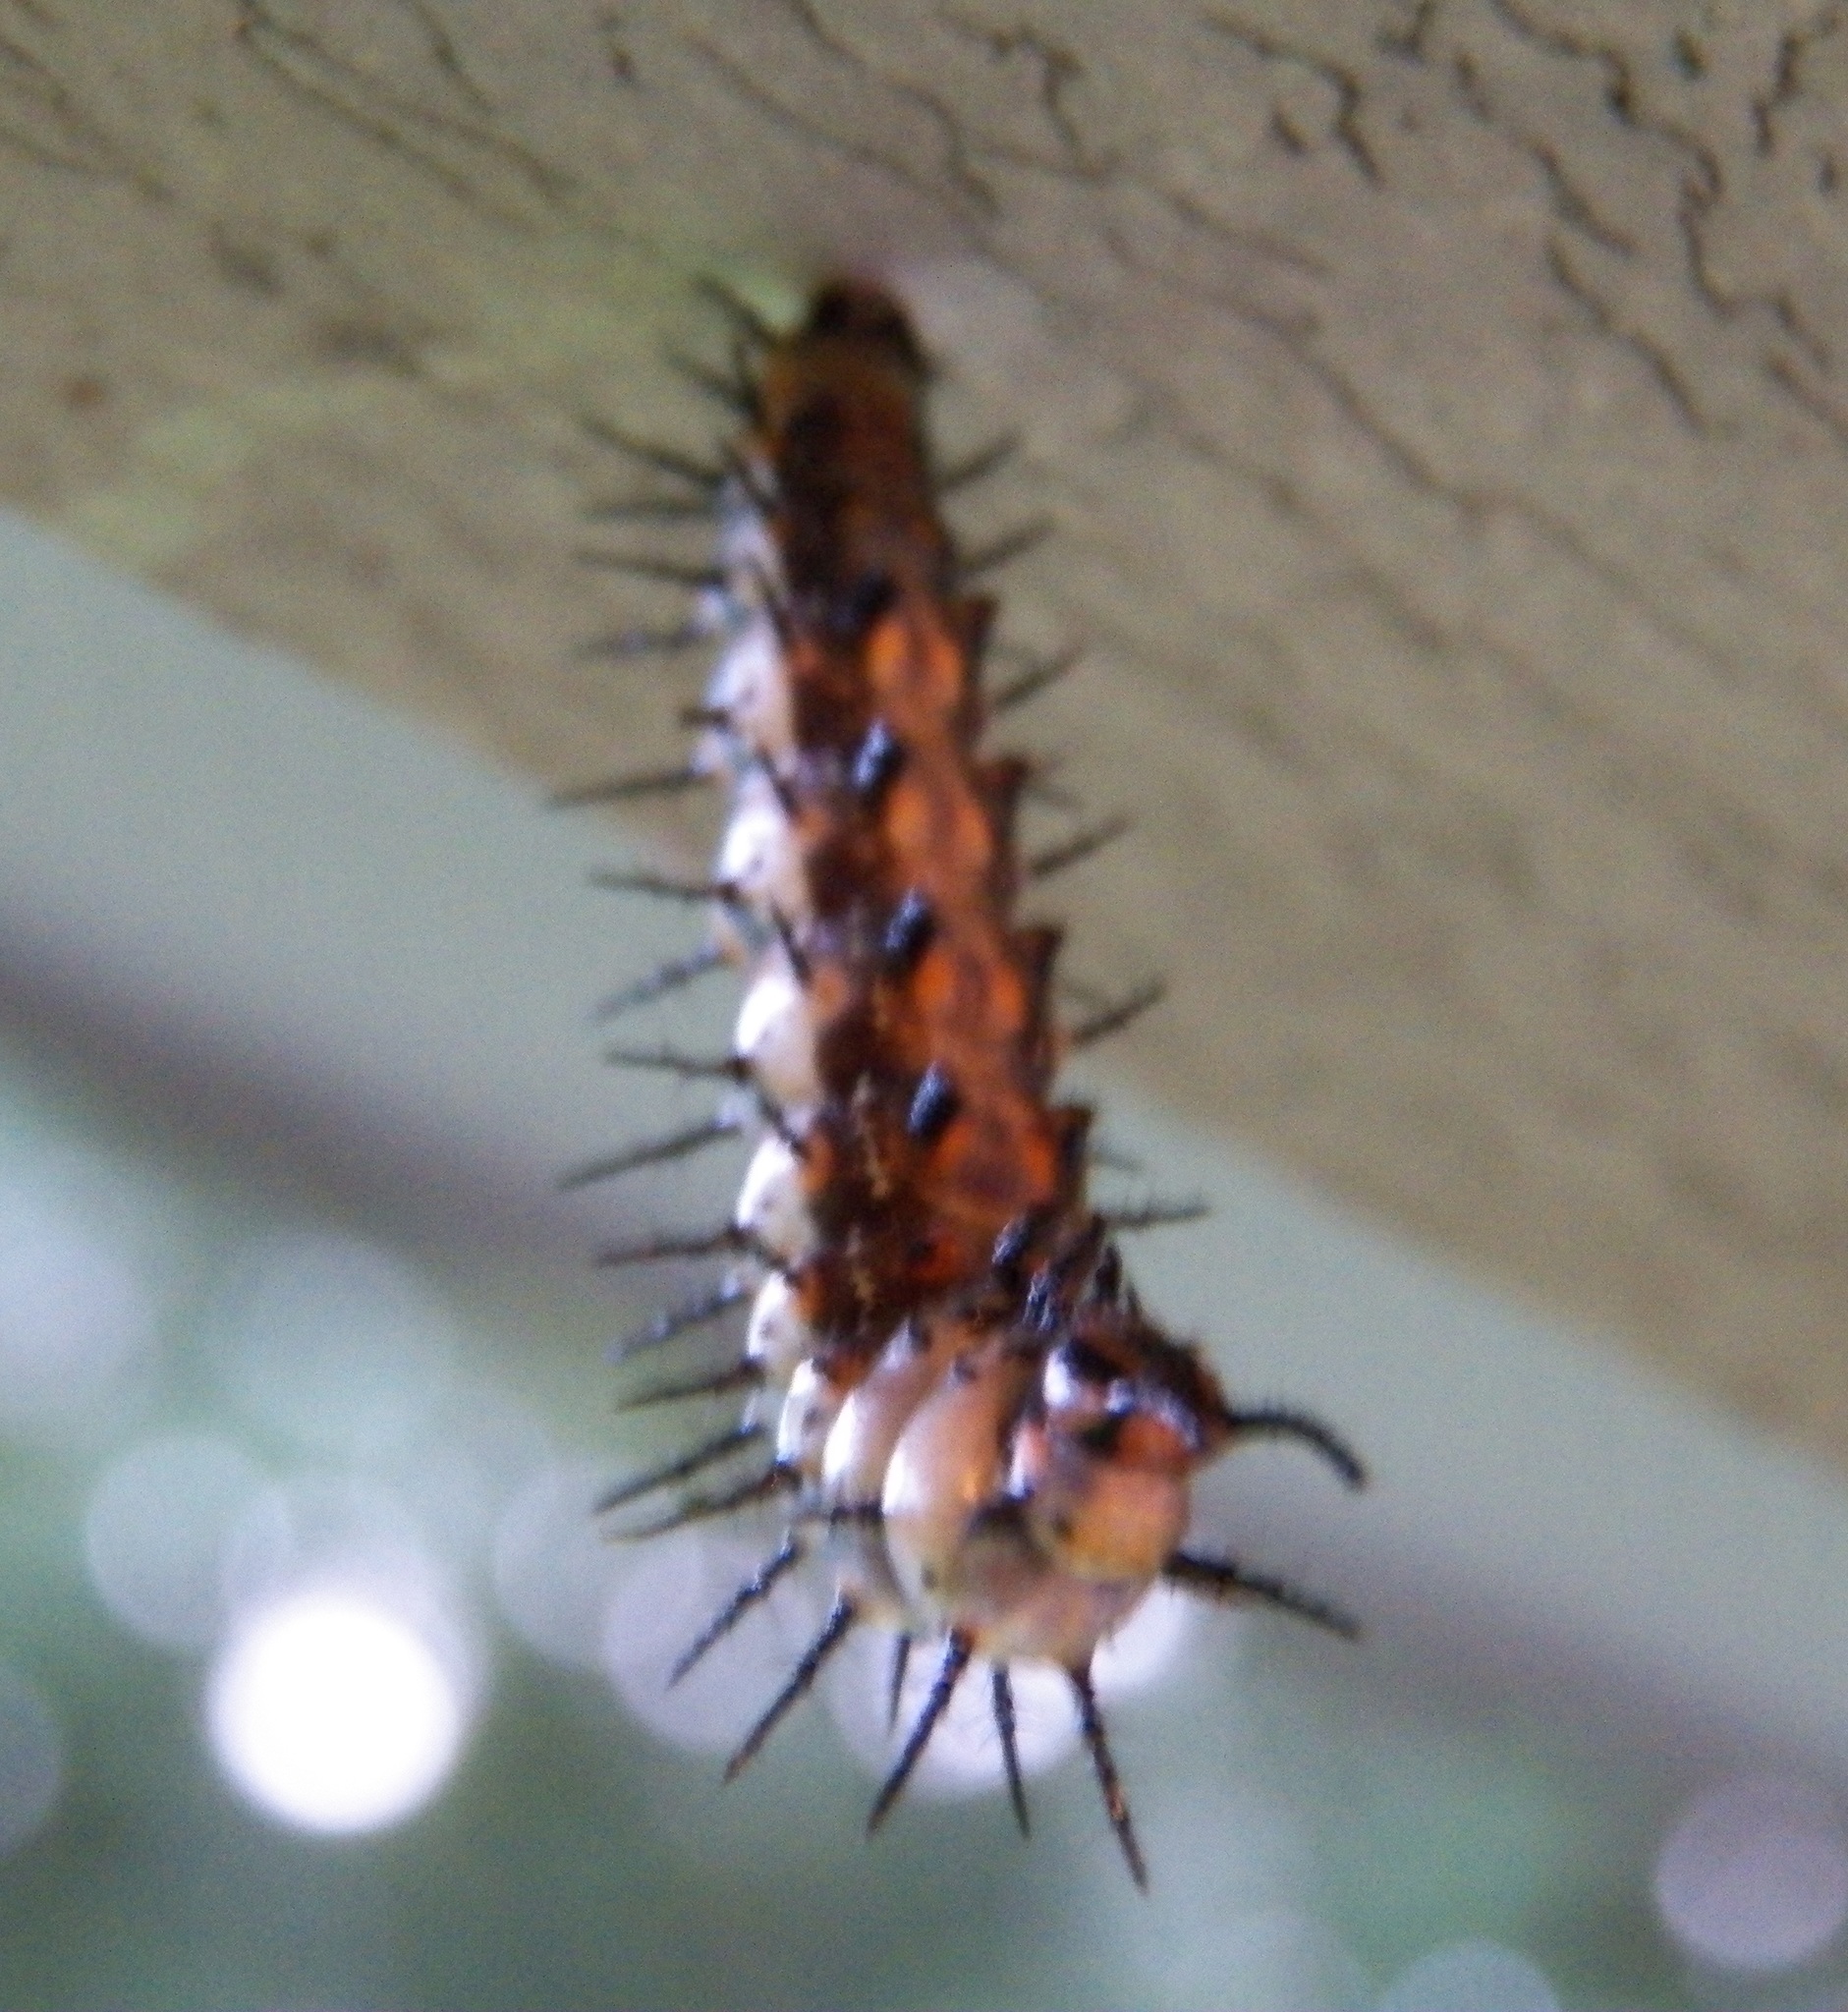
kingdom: Animalia
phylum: Arthropoda
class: Insecta
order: Lepidoptera
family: Nymphalidae
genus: Dione
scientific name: Dione vanillae
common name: Gulf fritillary
